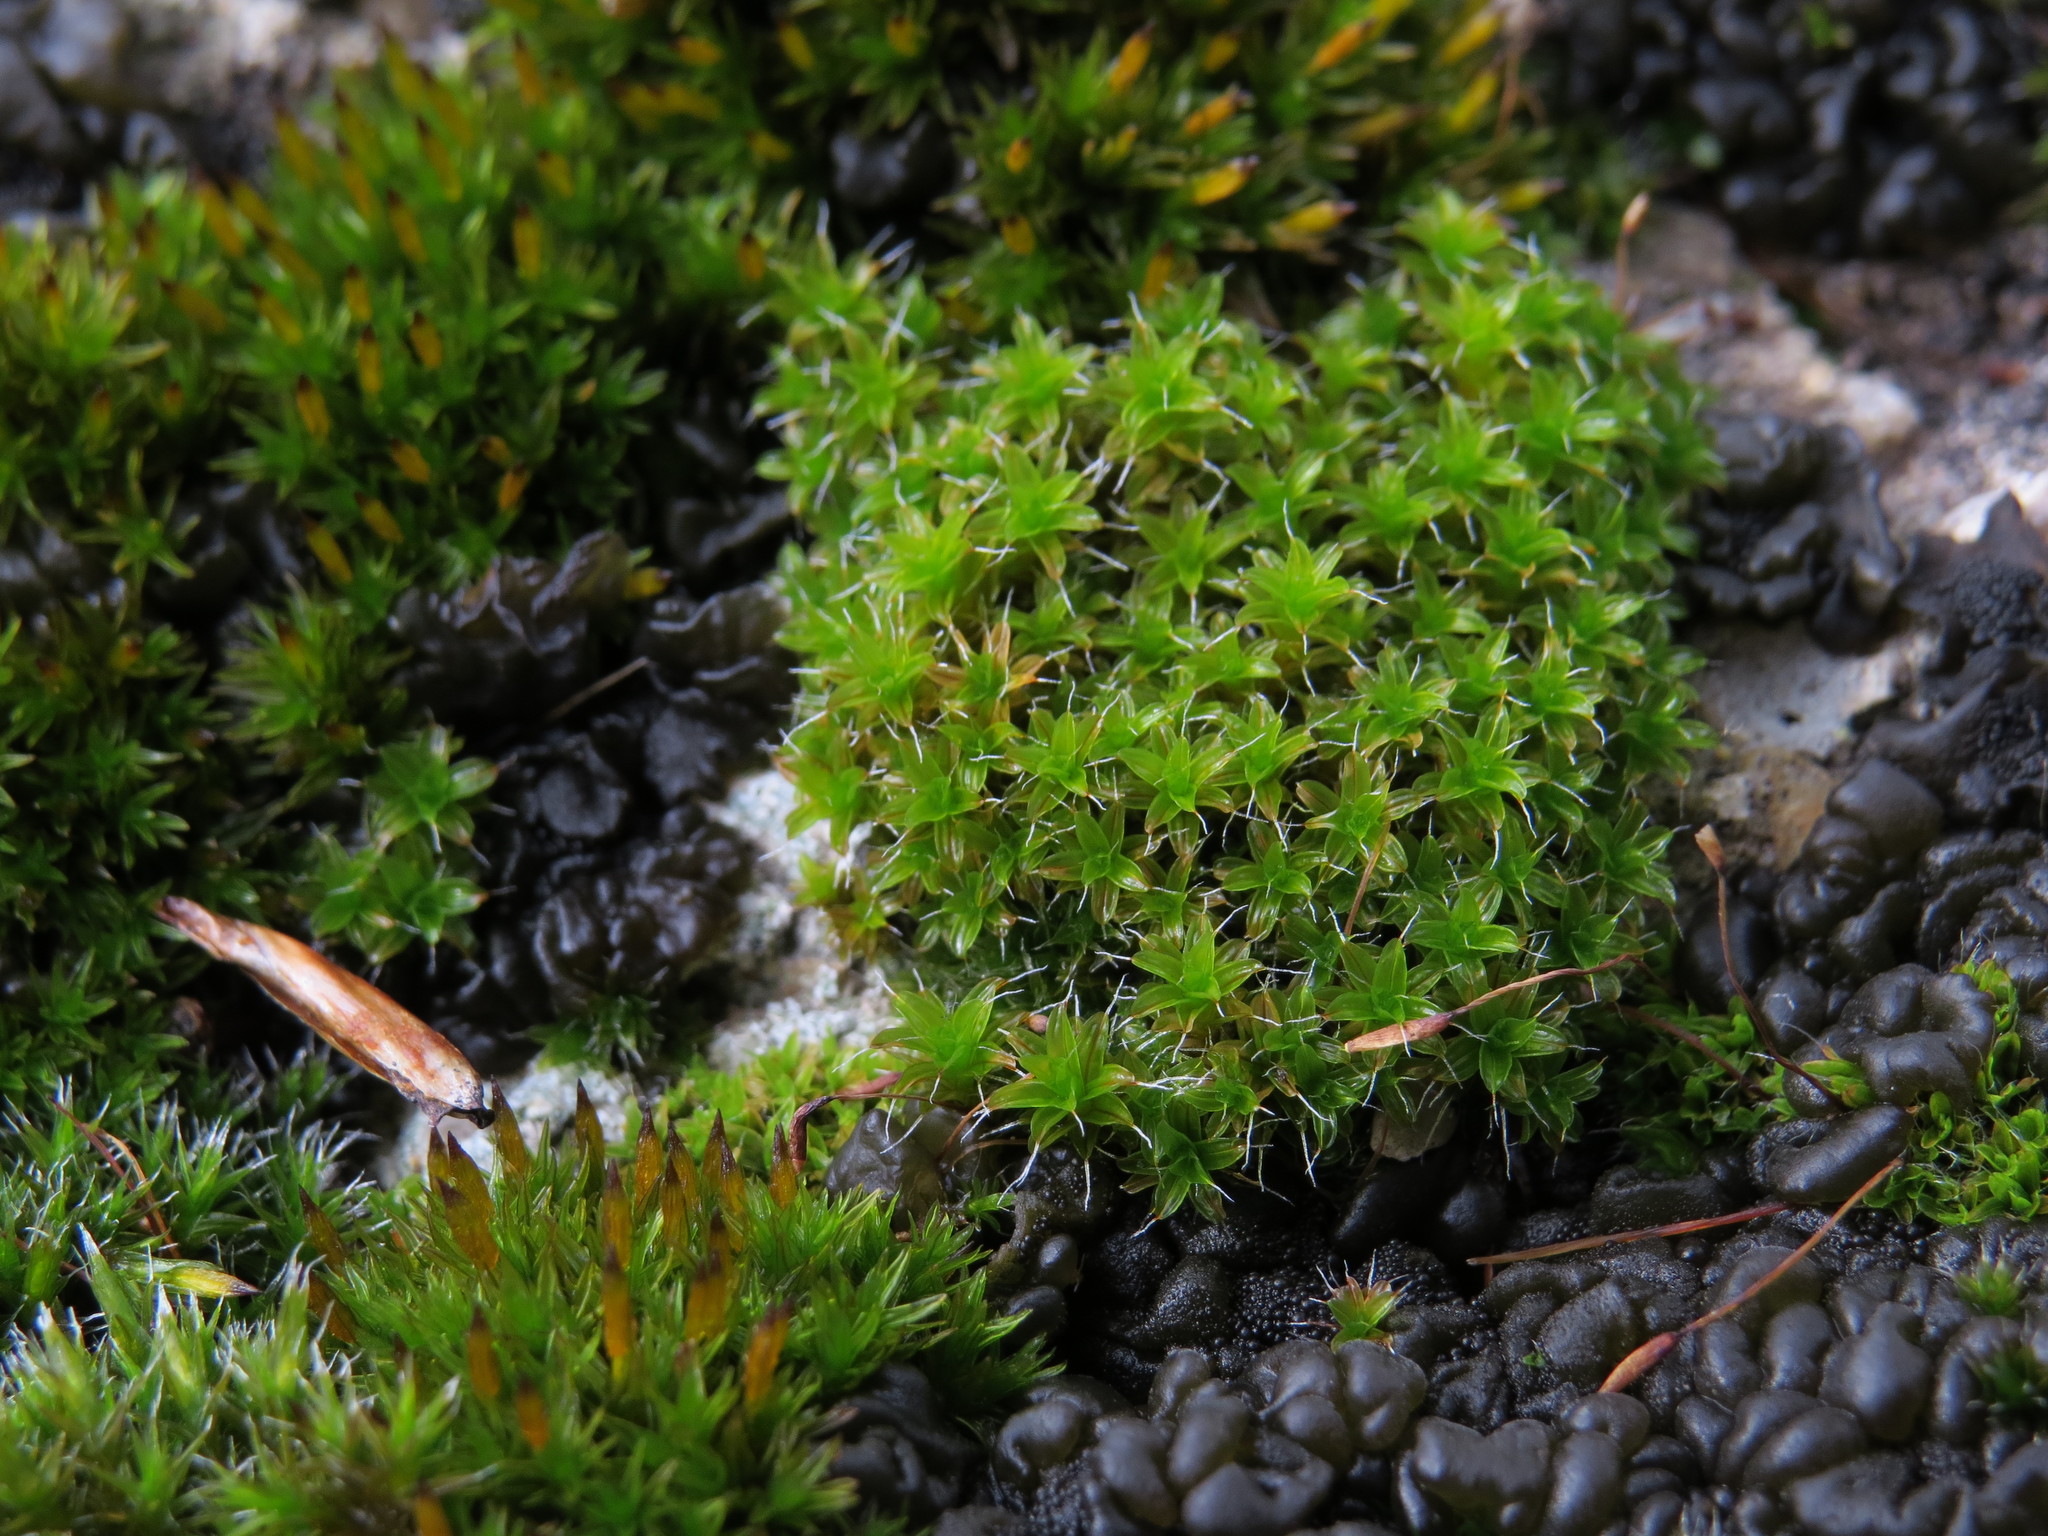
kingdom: Plantae
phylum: Bryophyta
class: Bryopsida
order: Pottiales
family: Pottiaceae
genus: Syntrichia
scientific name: Syntrichia montana
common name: Intermediate screw-moss
